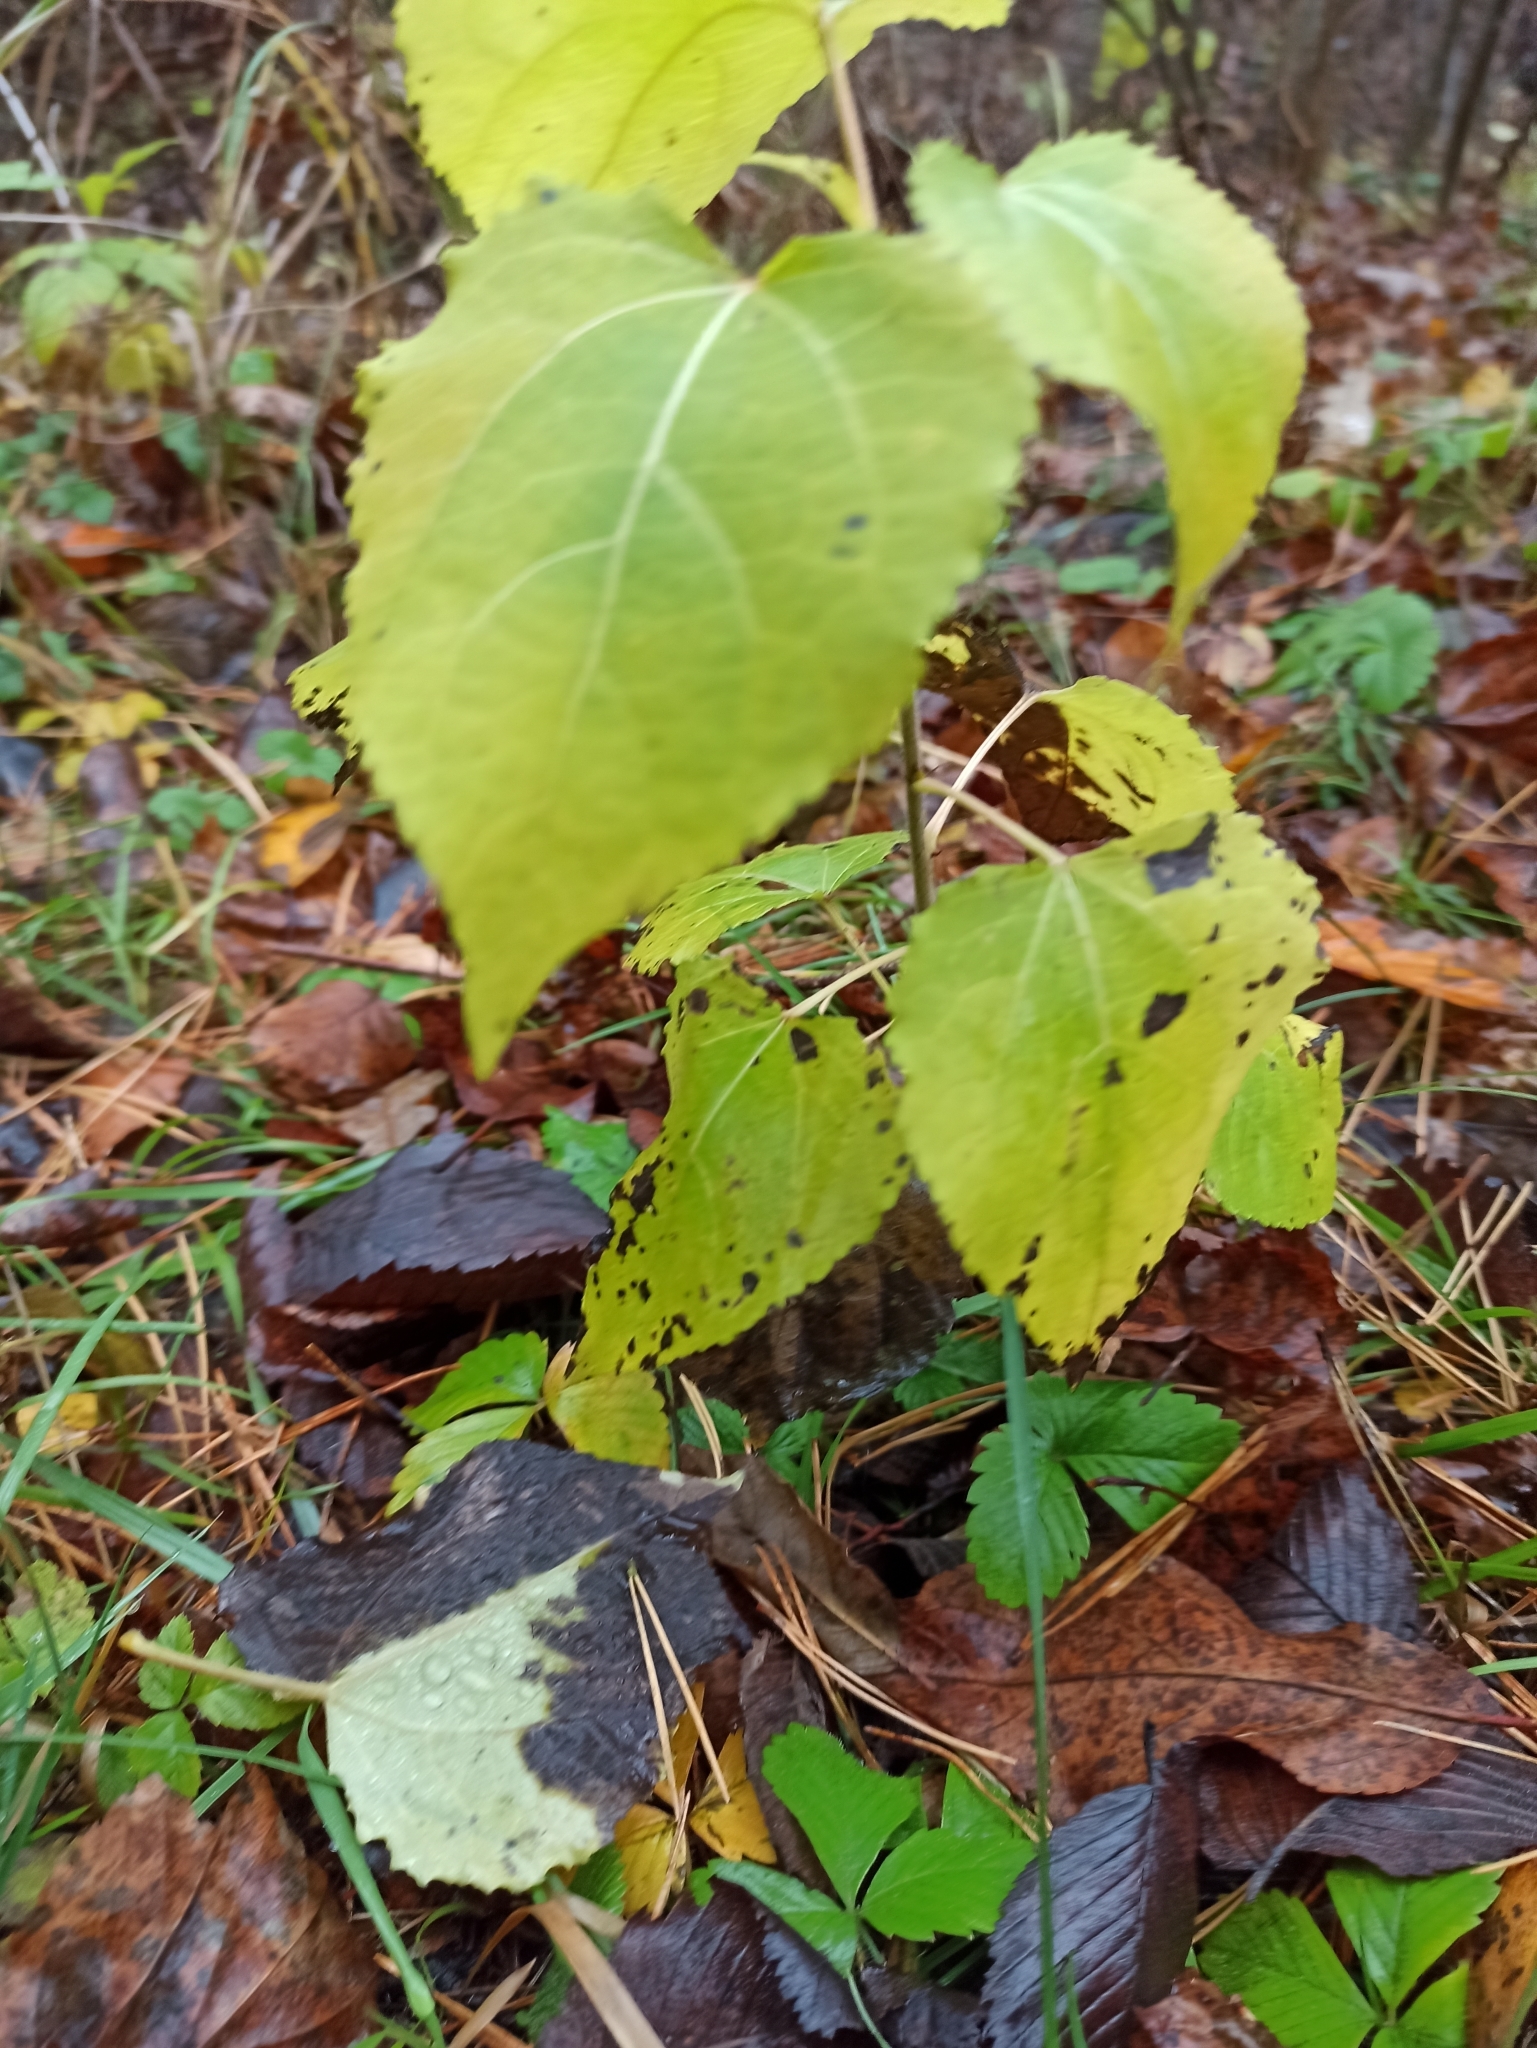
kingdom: Plantae
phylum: Tracheophyta
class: Magnoliopsida
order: Malpighiales
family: Salicaceae
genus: Populus
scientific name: Populus tremula
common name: European aspen
